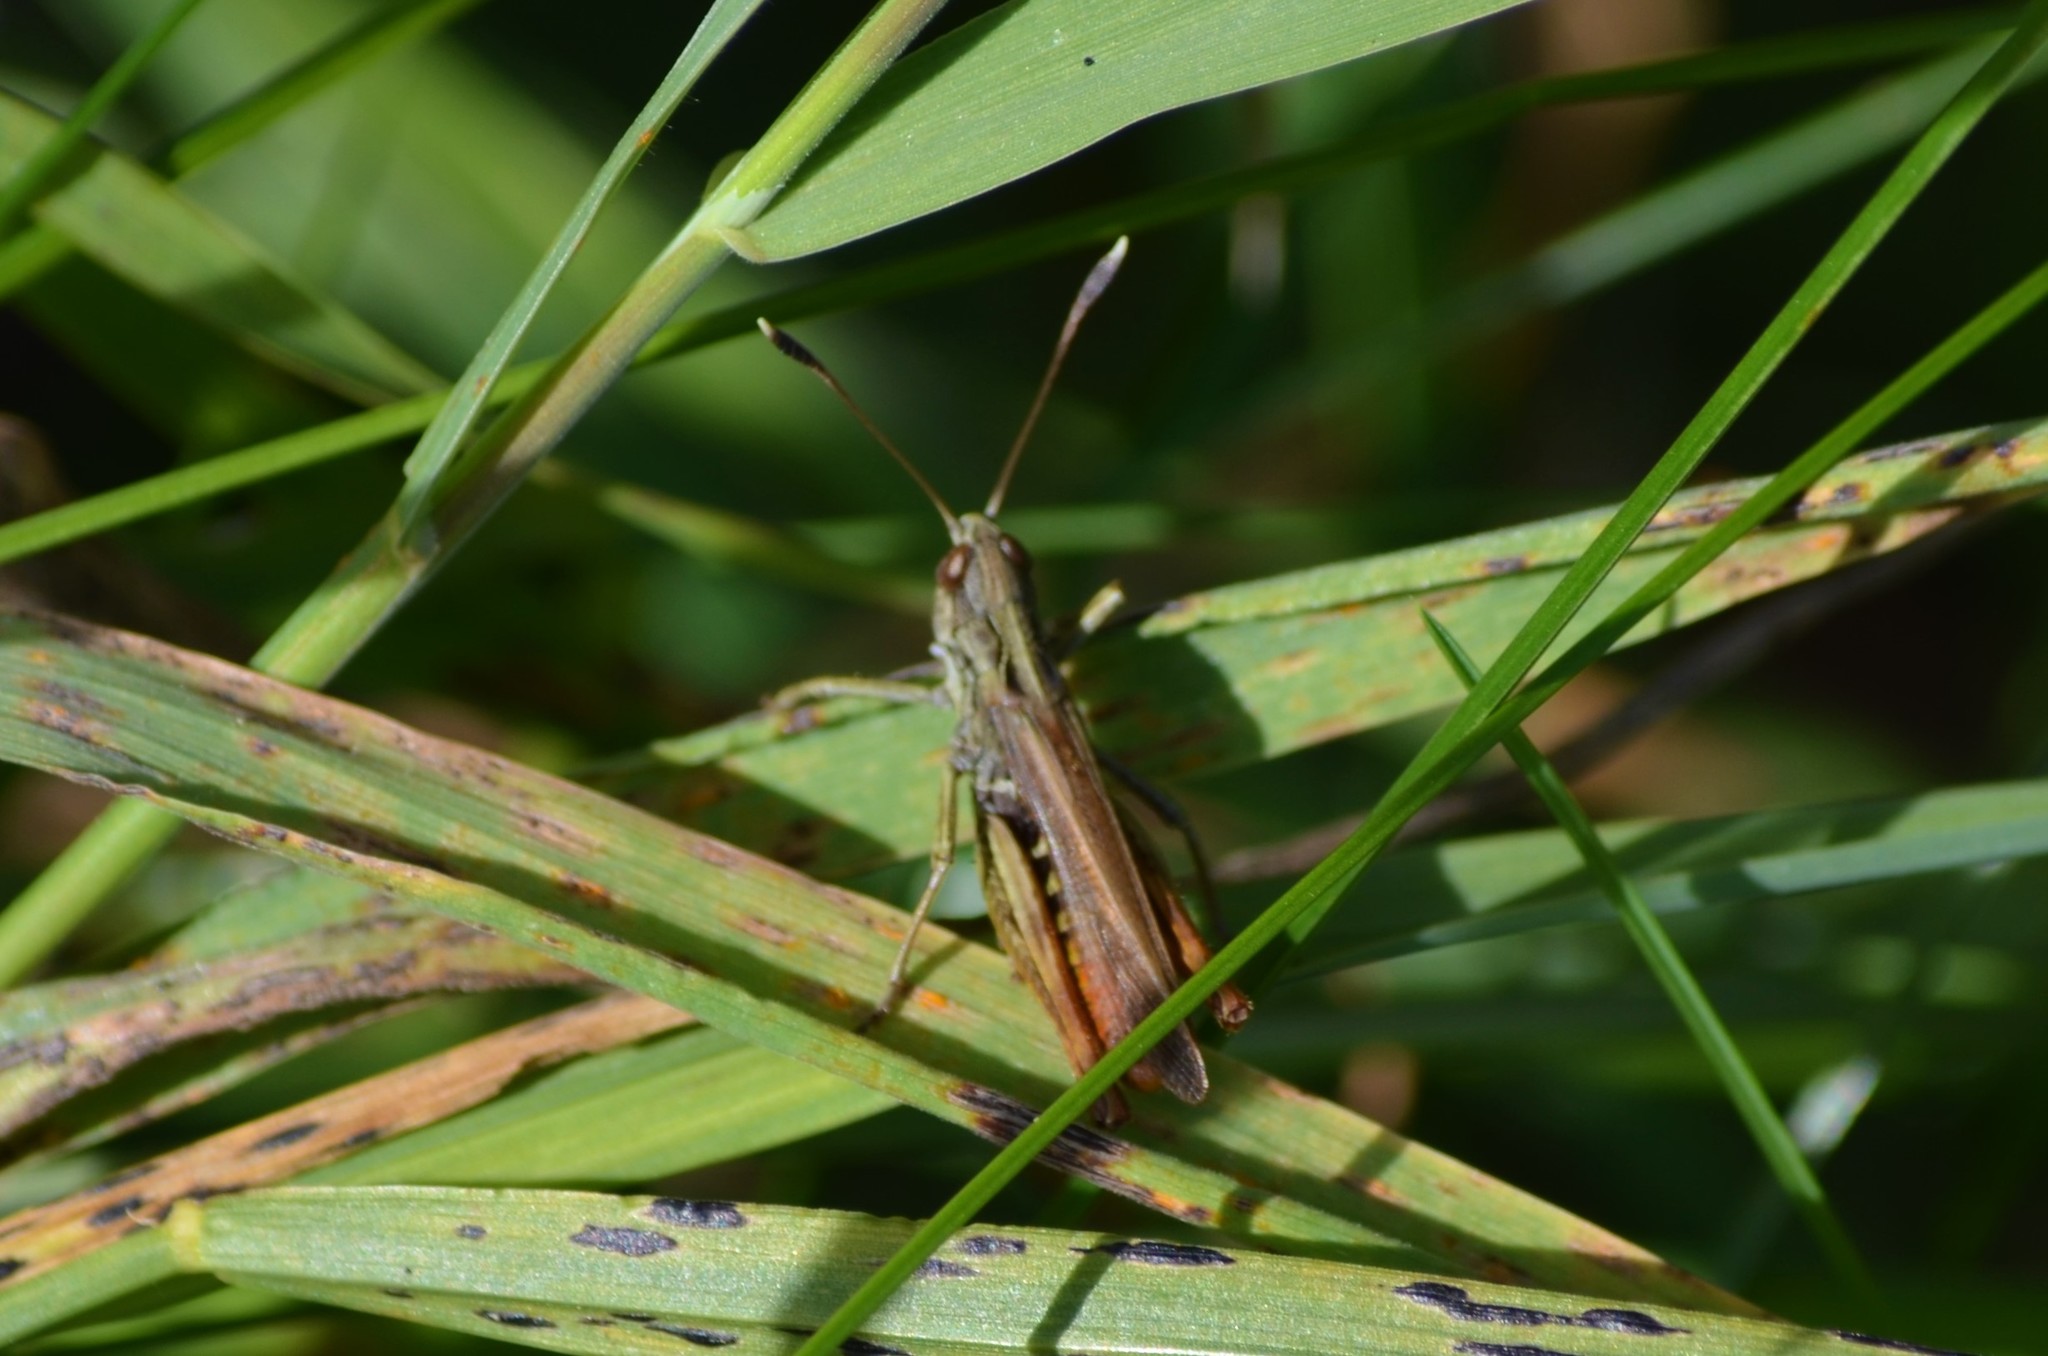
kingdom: Animalia
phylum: Arthropoda
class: Insecta
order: Orthoptera
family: Acrididae
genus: Gomphocerippus
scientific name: Gomphocerippus rufus
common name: Rufous grasshopper
